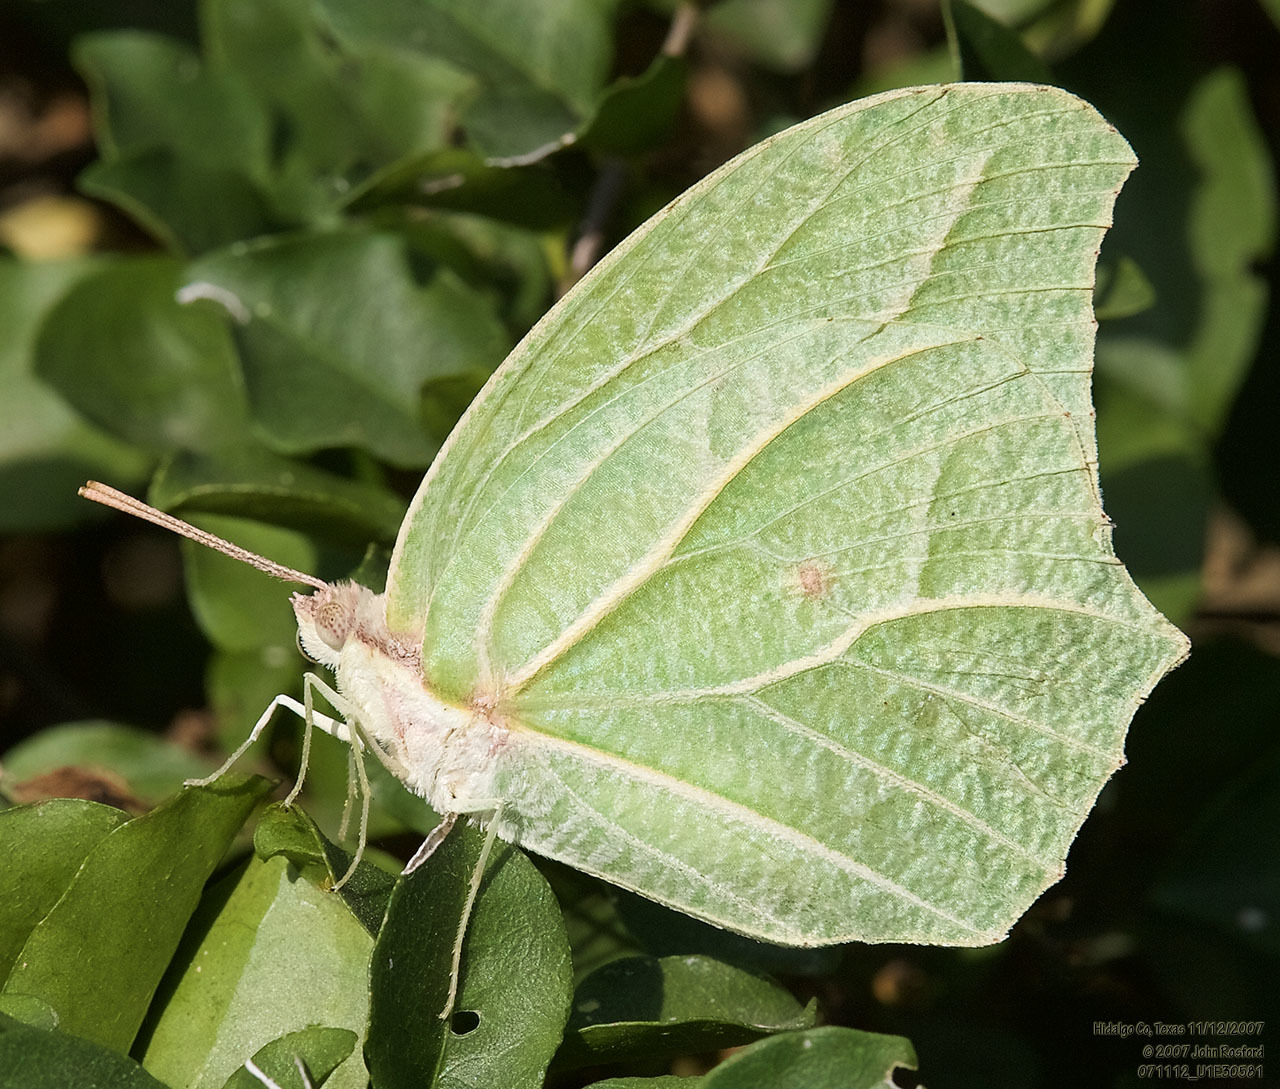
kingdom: Animalia
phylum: Arthropoda
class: Insecta
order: Lepidoptera
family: Pieridae
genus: Anteos
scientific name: Anteos clorinde
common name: White angled sulphur
